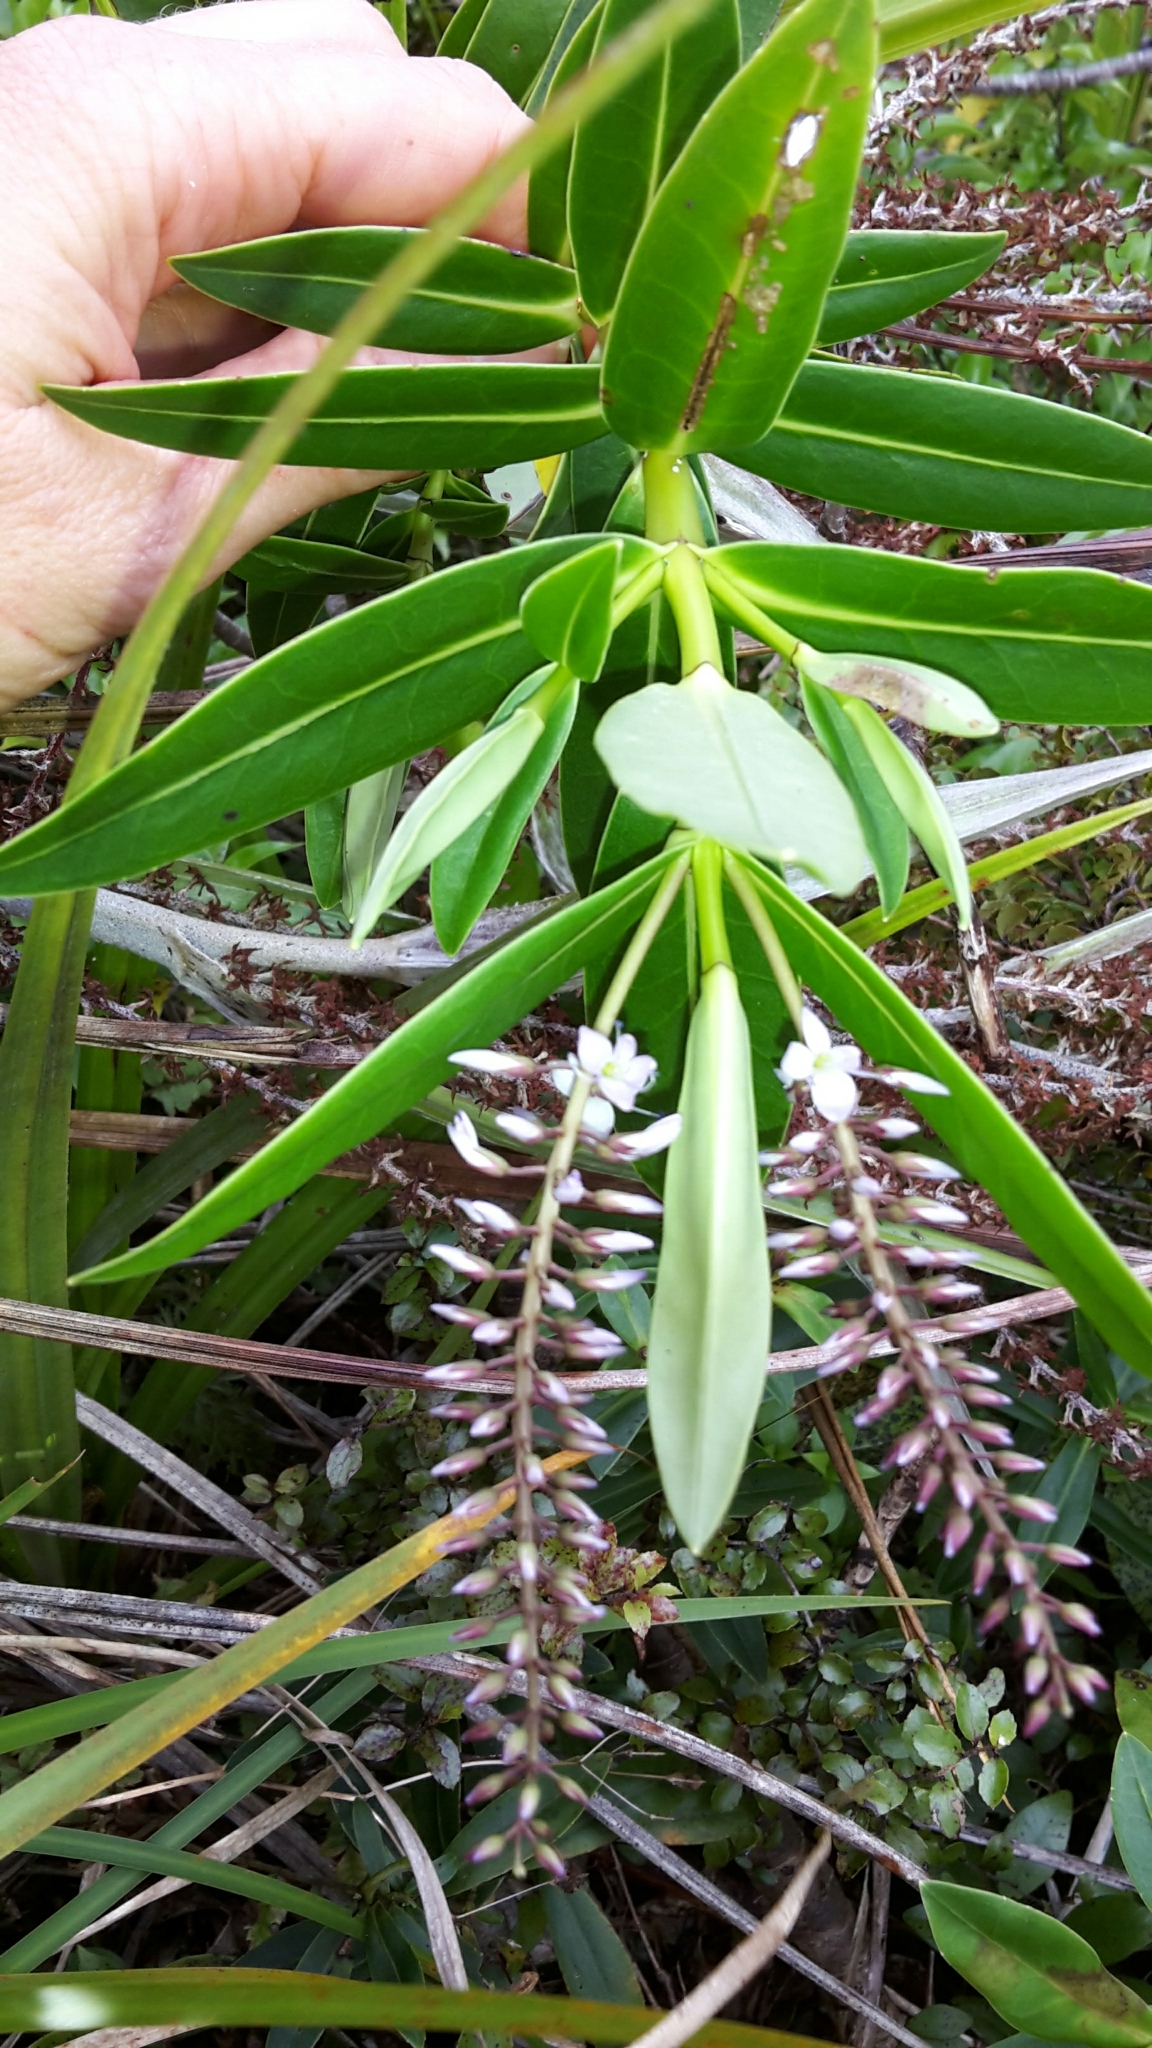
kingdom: Plantae
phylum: Tracheophyta
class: Magnoliopsida
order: Lamiales
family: Plantaginaceae
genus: Veronica
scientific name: Veronica perbella
